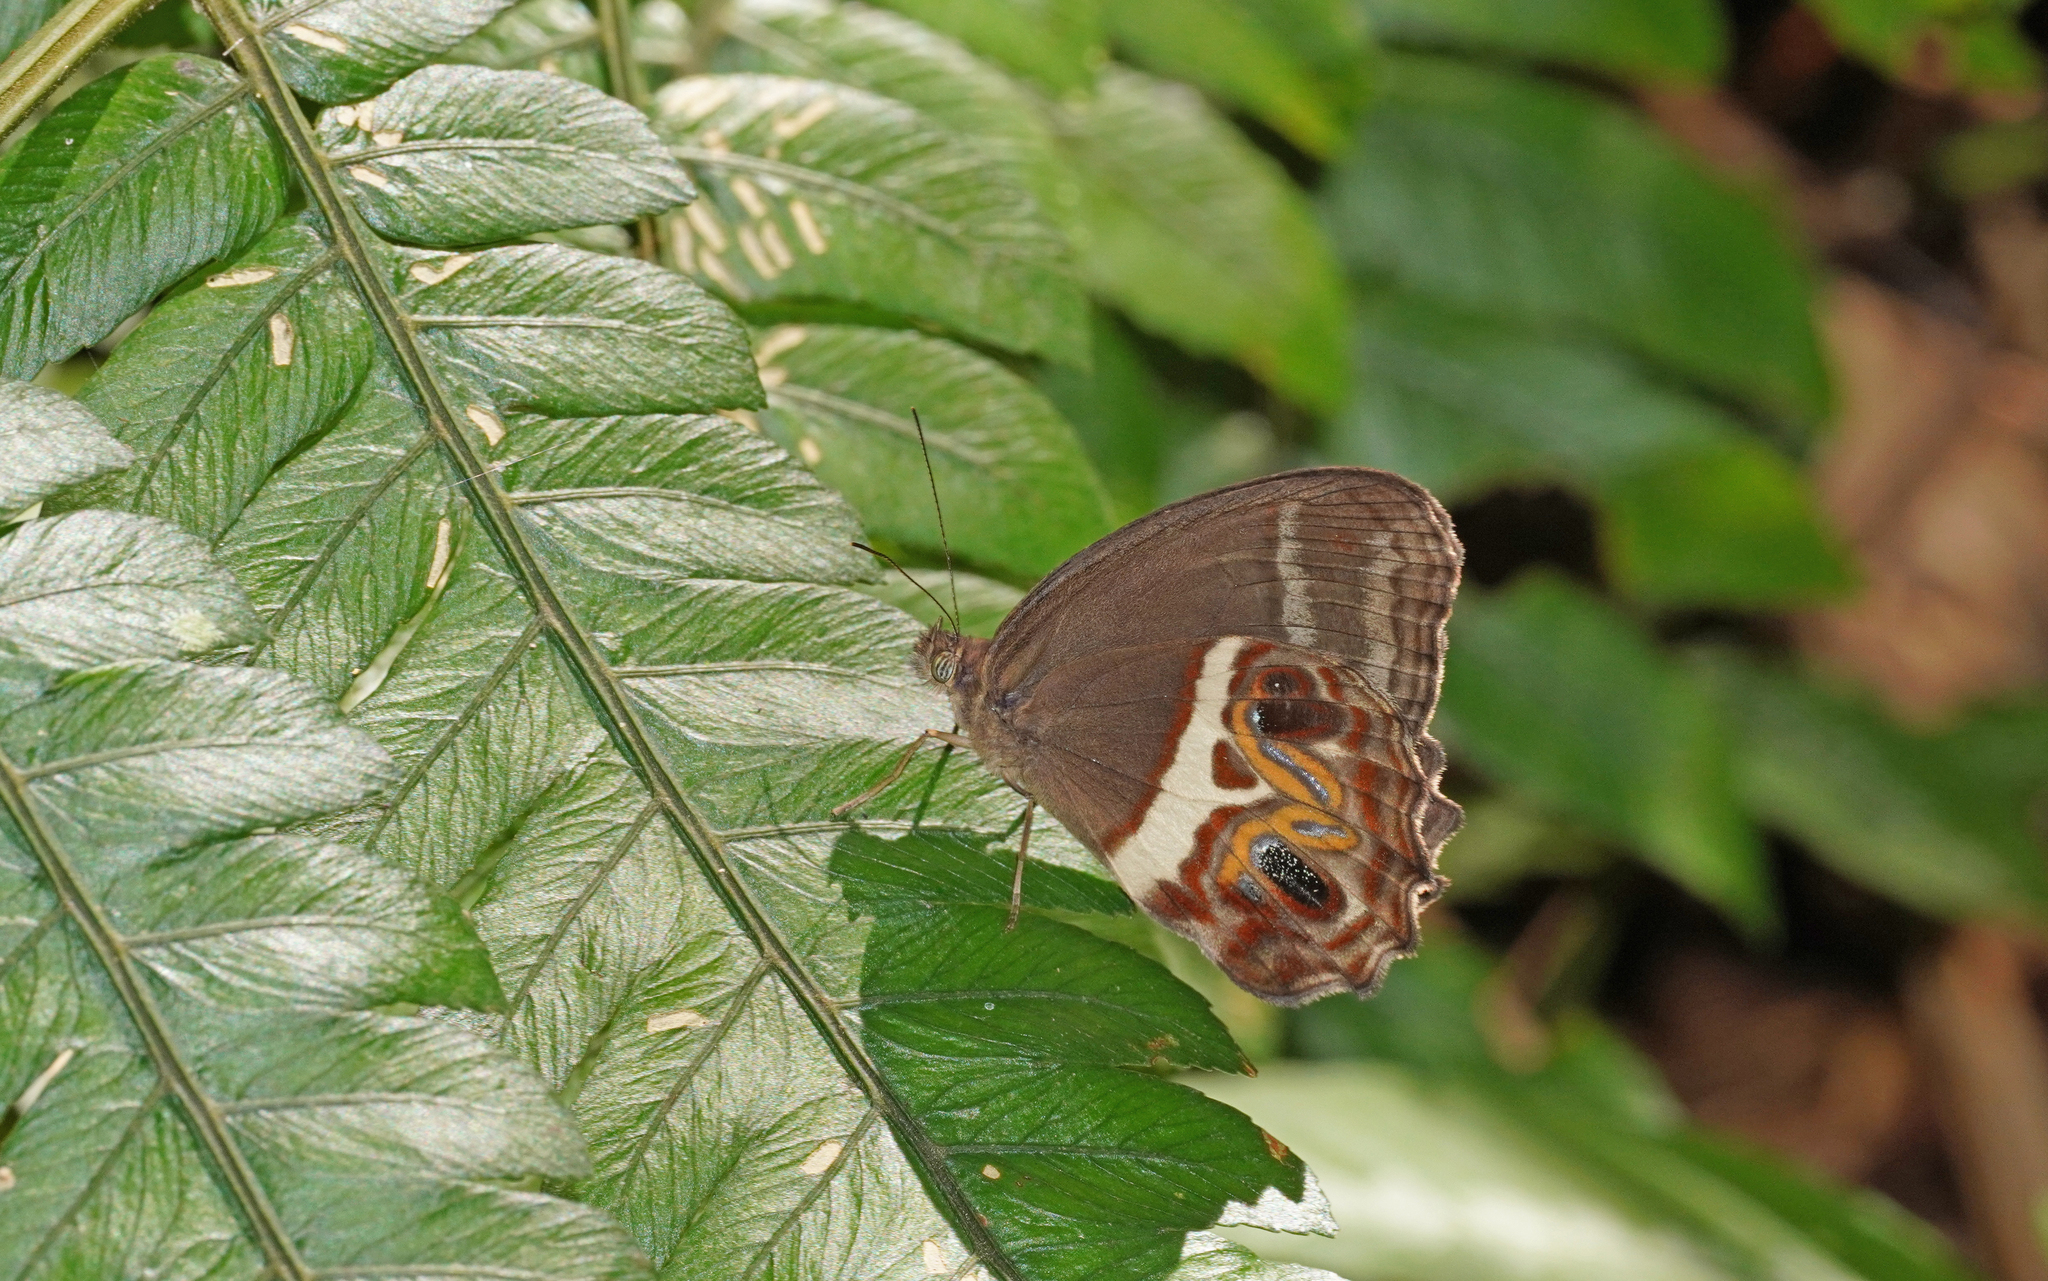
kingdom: Animalia
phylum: Arthropoda
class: Insecta
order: Lepidoptera
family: Nymphalidae
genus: Amphidecta
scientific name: Amphidecta
